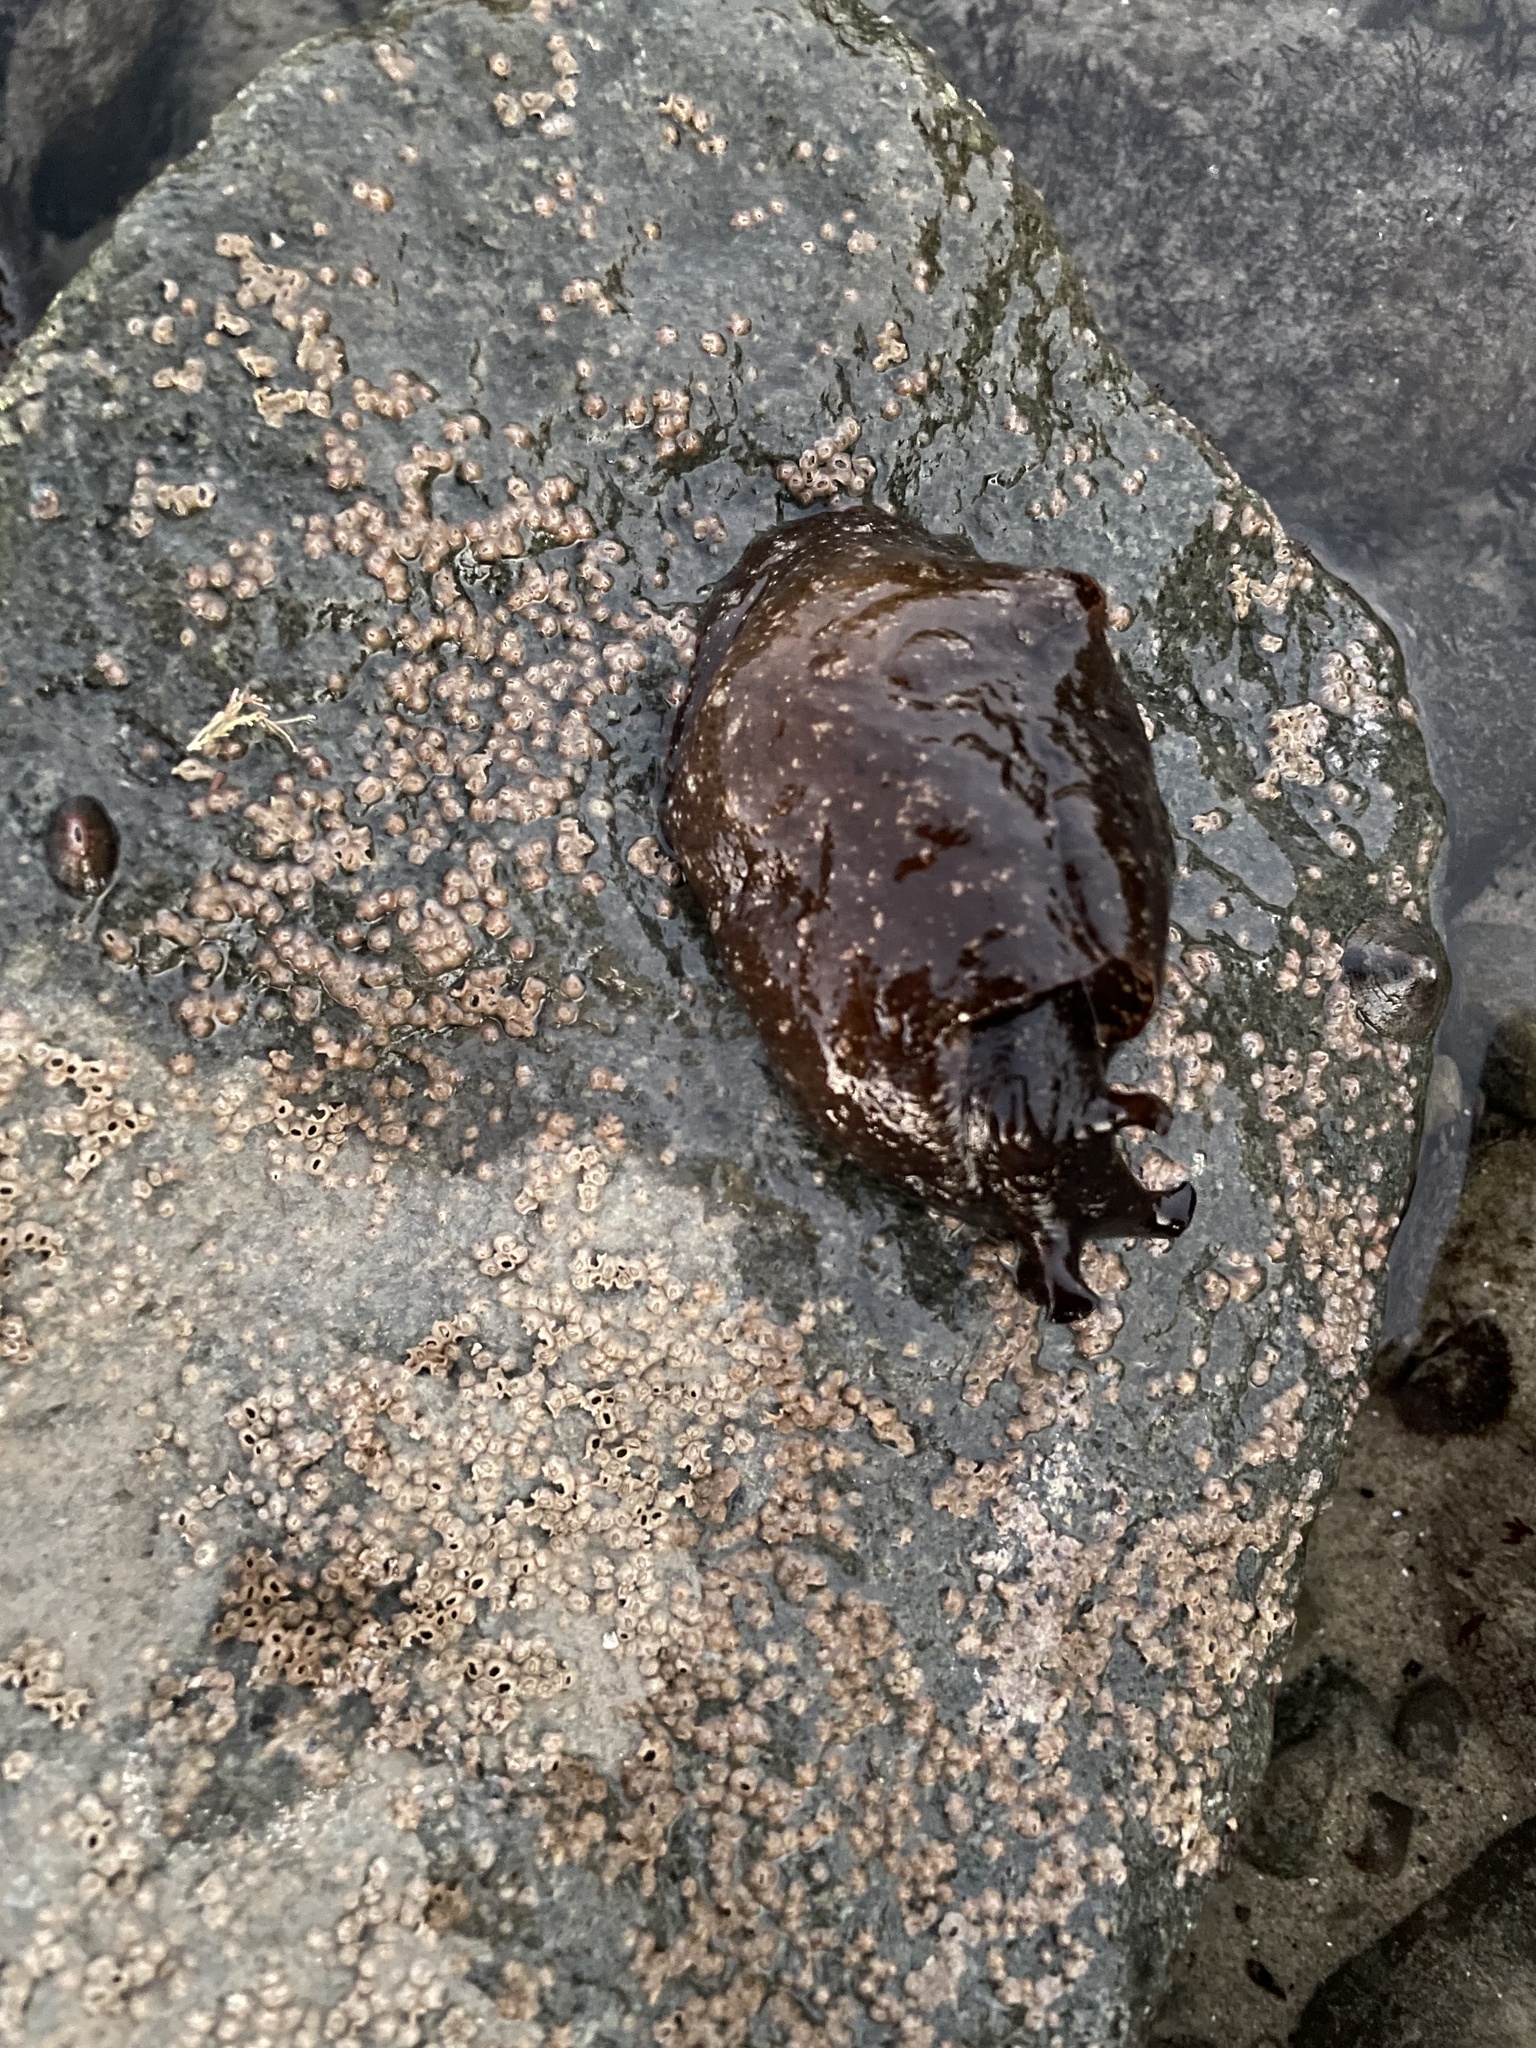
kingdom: Animalia
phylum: Mollusca
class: Gastropoda
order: Aplysiida
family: Aplysiidae
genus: Aplysia
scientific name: Aplysia californica
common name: California seahare
